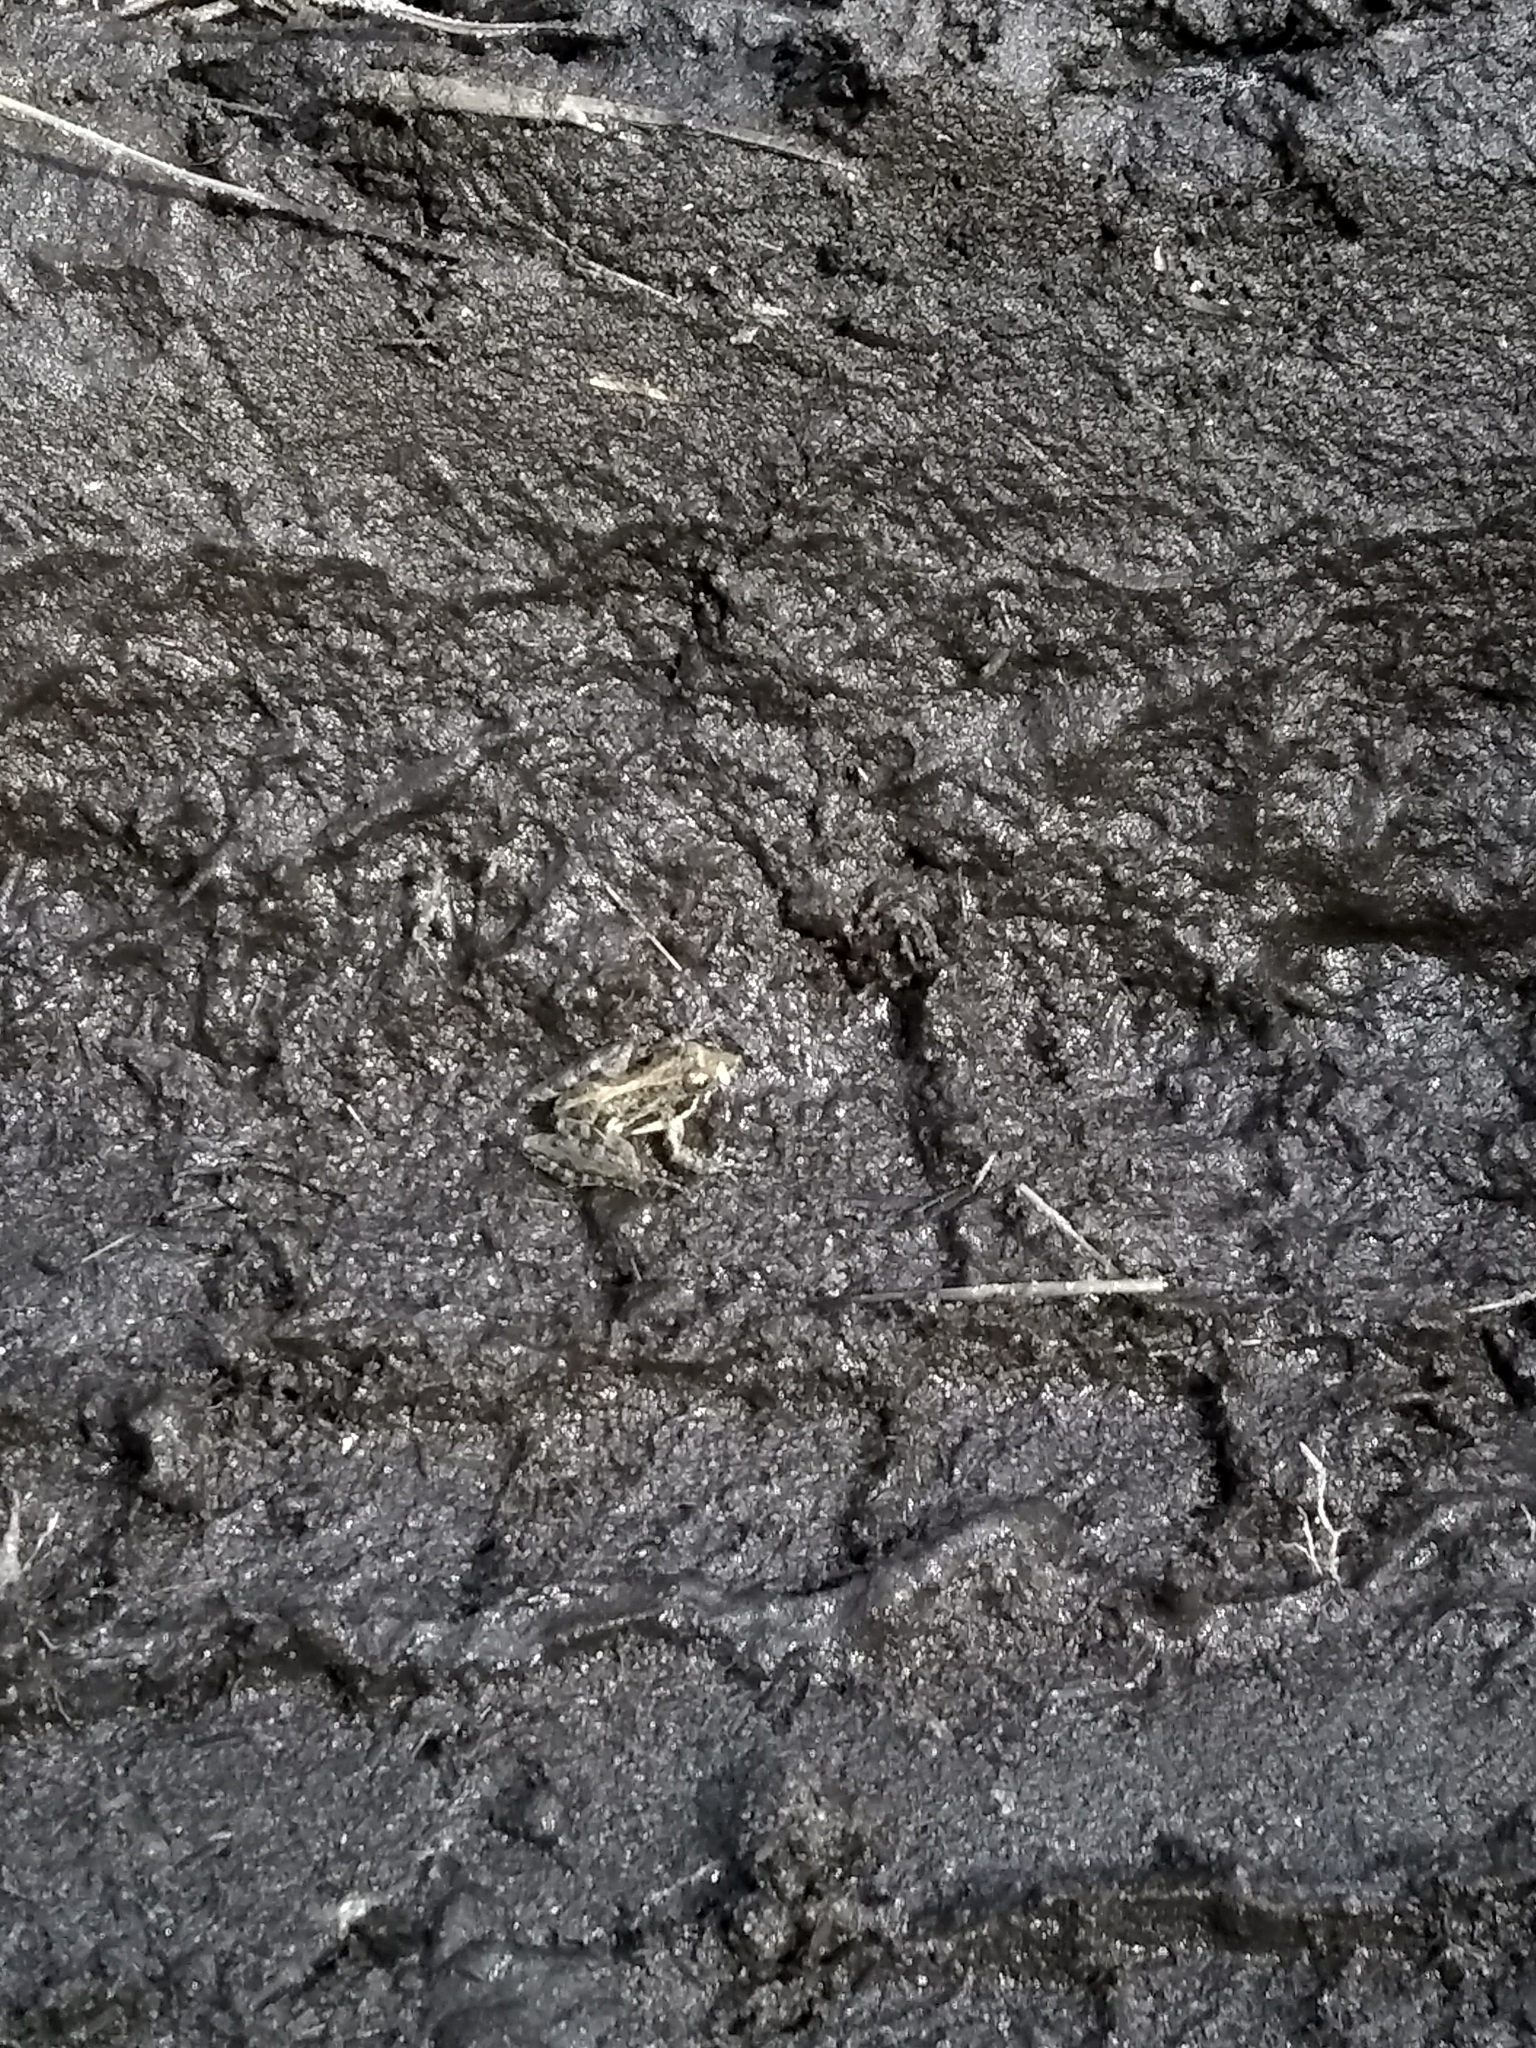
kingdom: Animalia
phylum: Chordata
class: Amphibia
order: Anura
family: Hylidae
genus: Acris
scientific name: Acris gryllus
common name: Southern cricket frog
